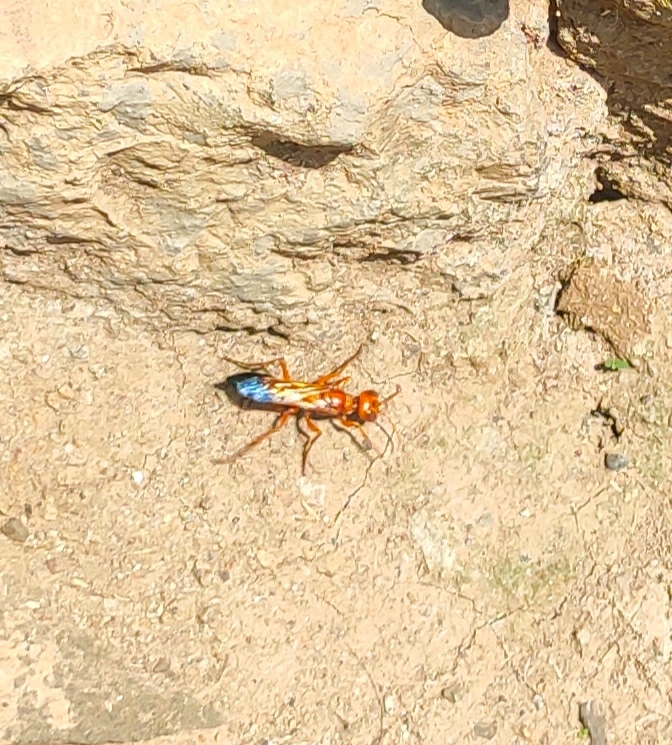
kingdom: Animalia
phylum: Arthropoda
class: Insecta
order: Hymenoptera
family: Sphecidae
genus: Chlorion
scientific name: Chlorion splendidum
